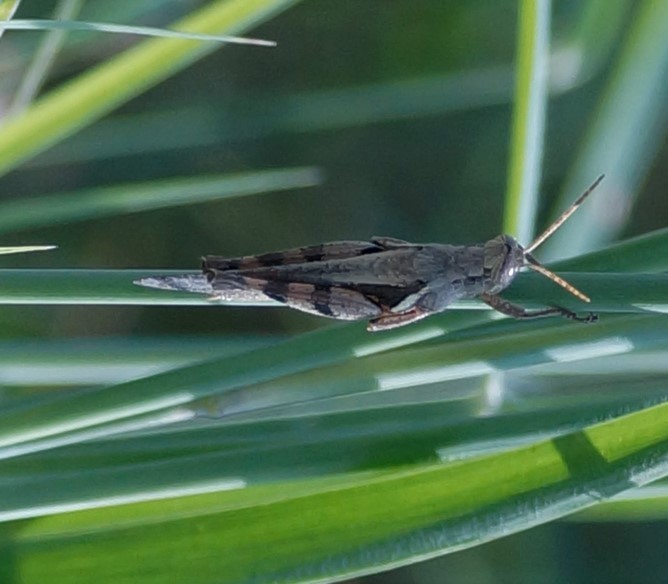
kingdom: Animalia
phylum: Arthropoda
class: Insecta
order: Orthoptera
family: Acrididae
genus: Stenocatantops
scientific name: Stenocatantops angustifrons
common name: Common tropical sharptail
